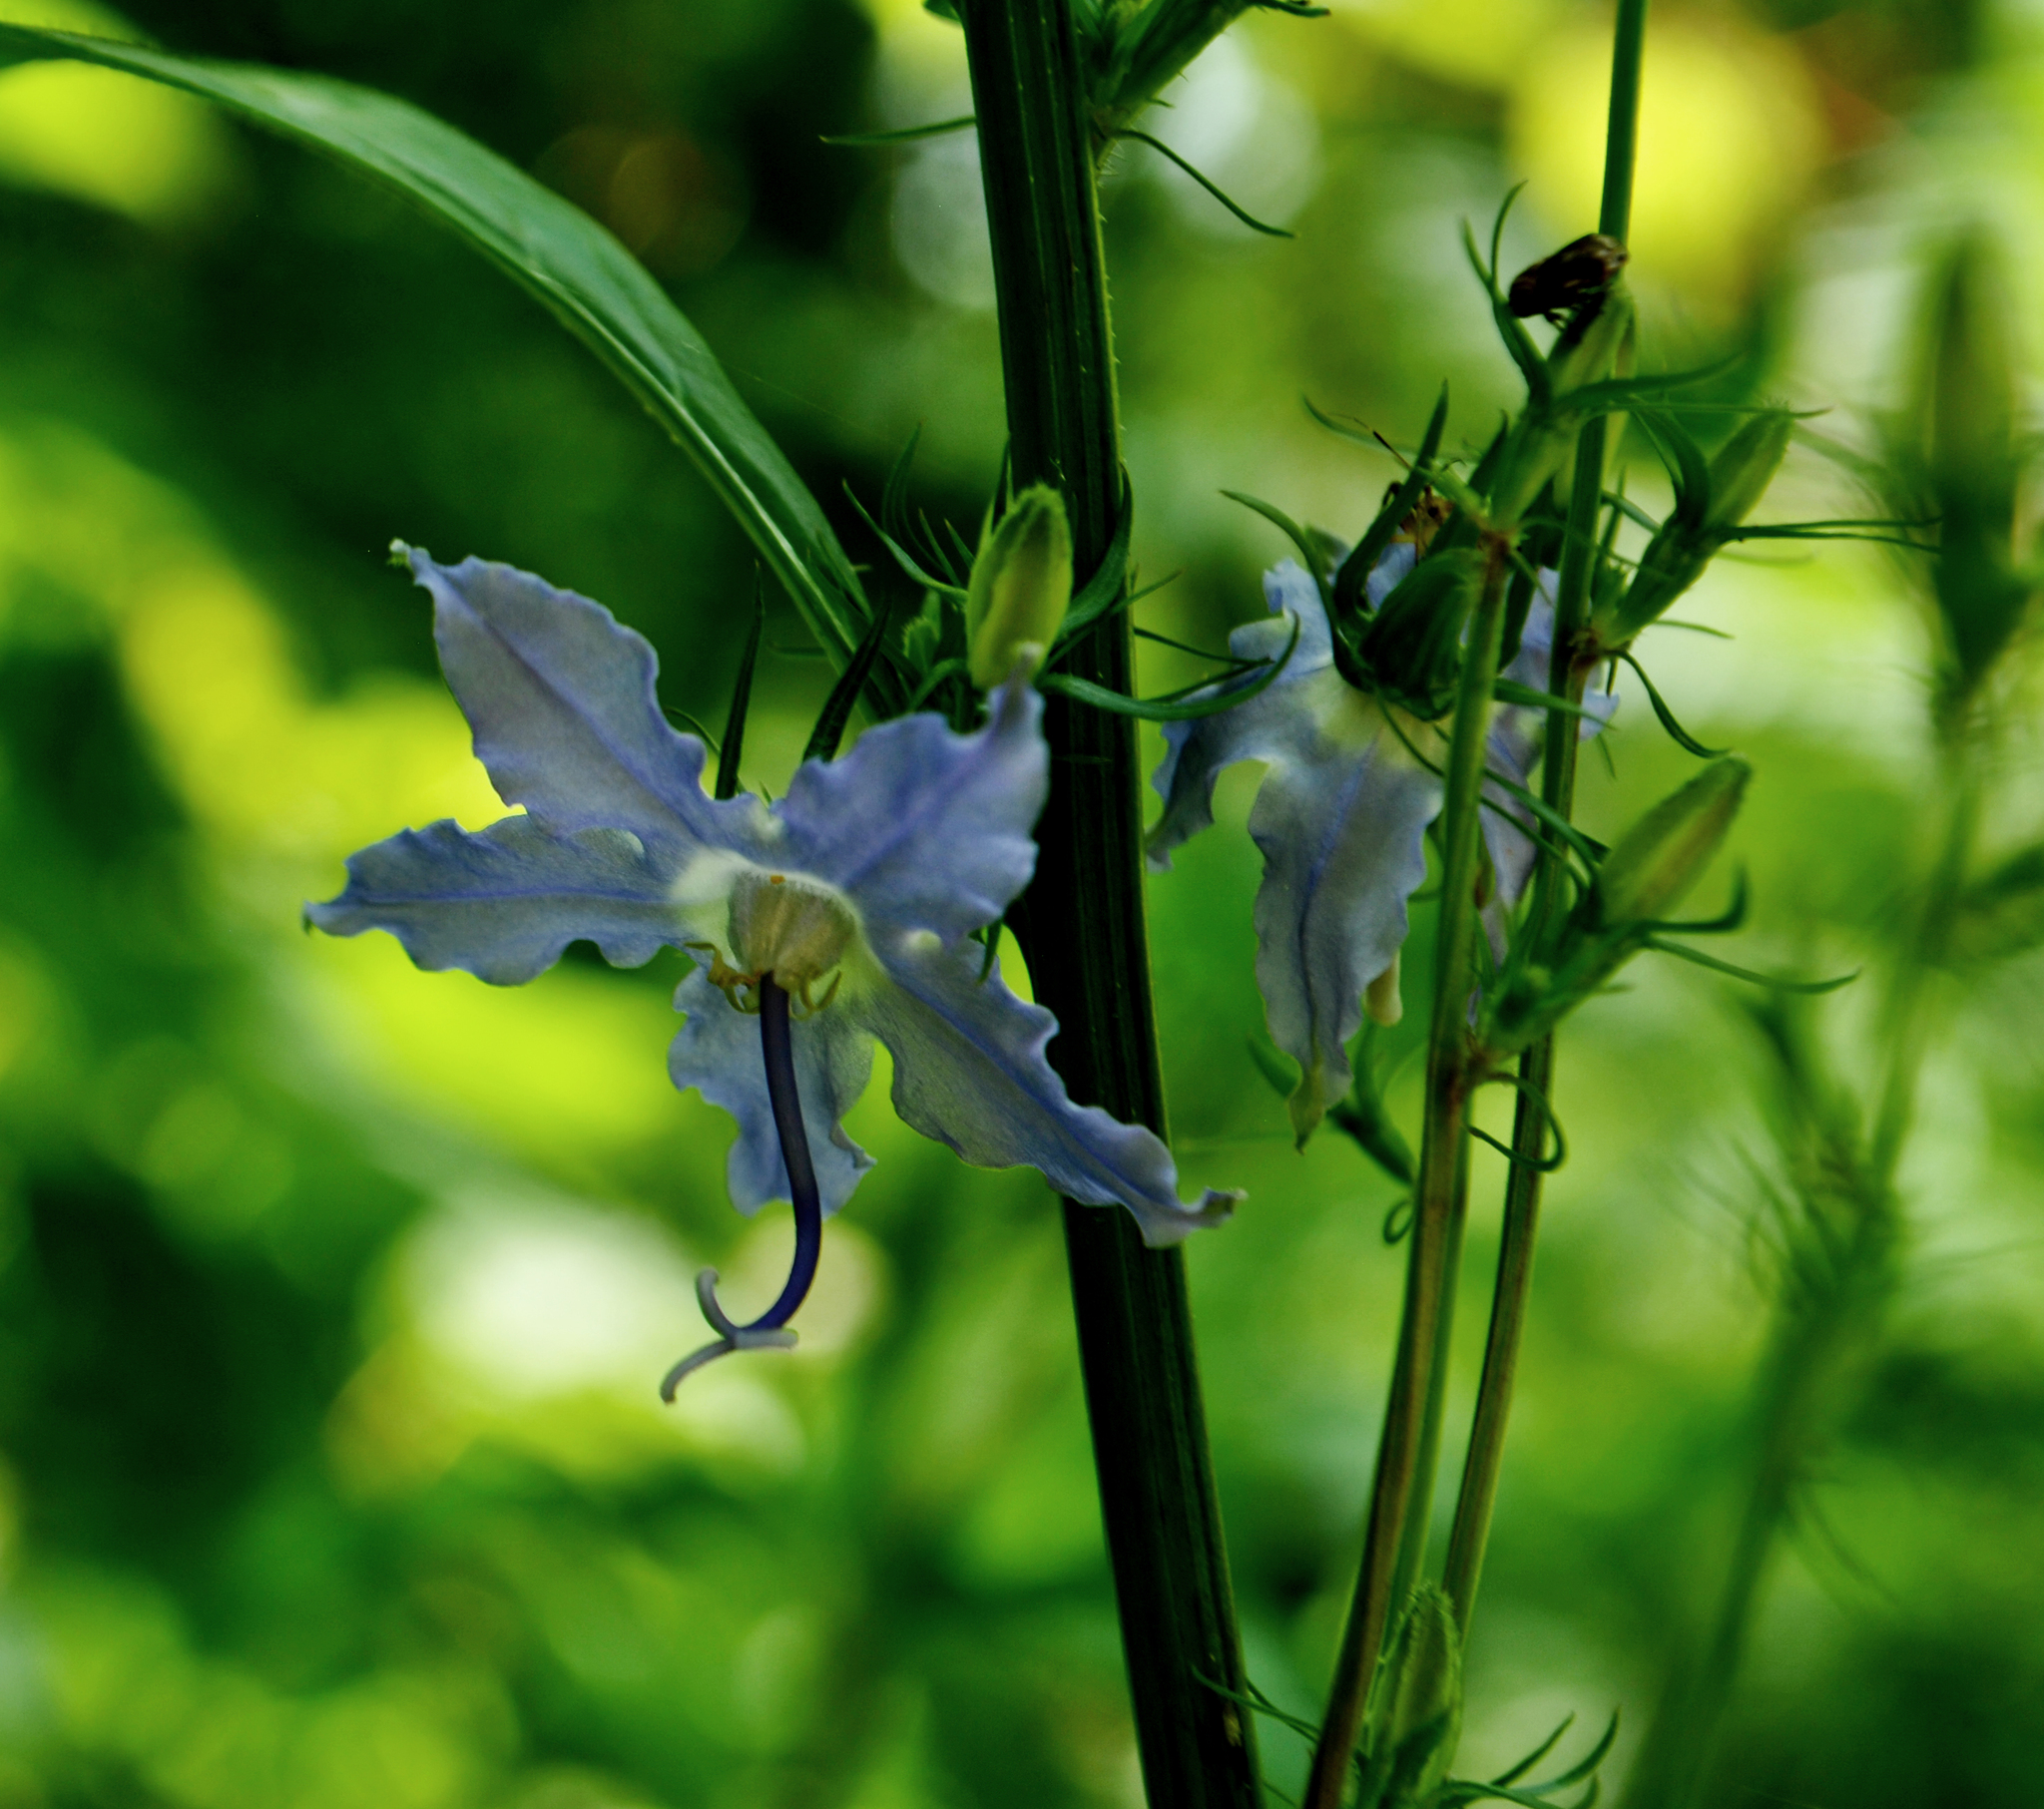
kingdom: Plantae
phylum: Tracheophyta
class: Magnoliopsida
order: Asterales
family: Campanulaceae
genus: Campanulastrum
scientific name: Campanulastrum americanum
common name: American bellflower
